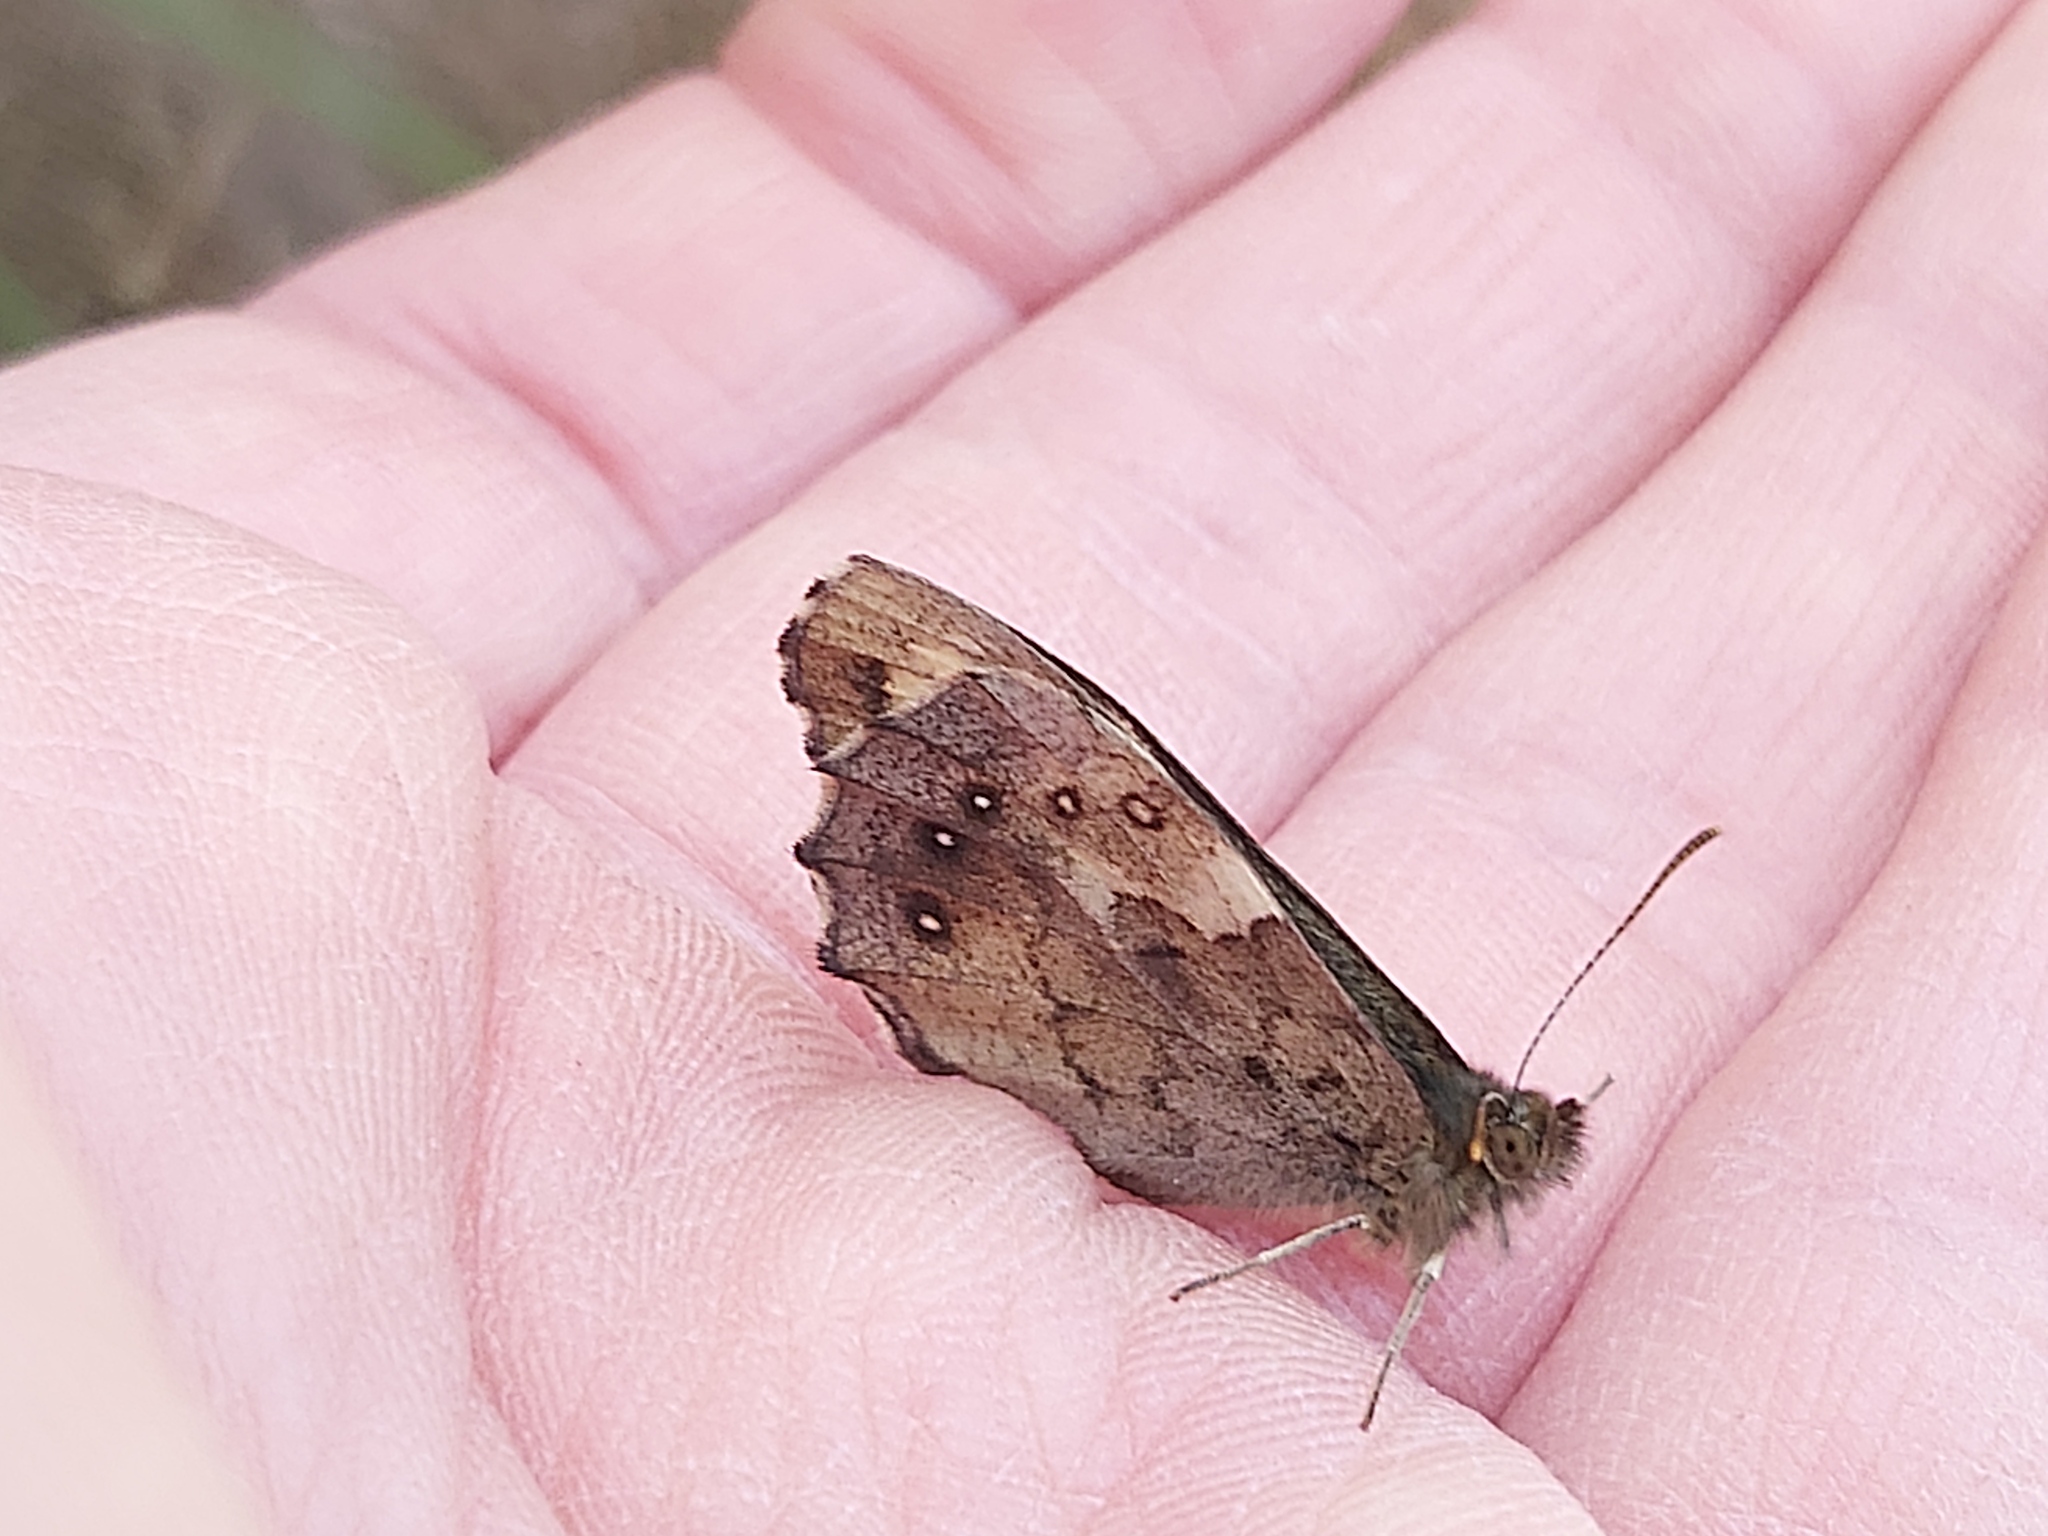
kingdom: Animalia
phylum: Arthropoda
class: Insecta
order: Lepidoptera
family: Nymphalidae
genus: Pararge
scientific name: Pararge aegeria
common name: Speckled wood
